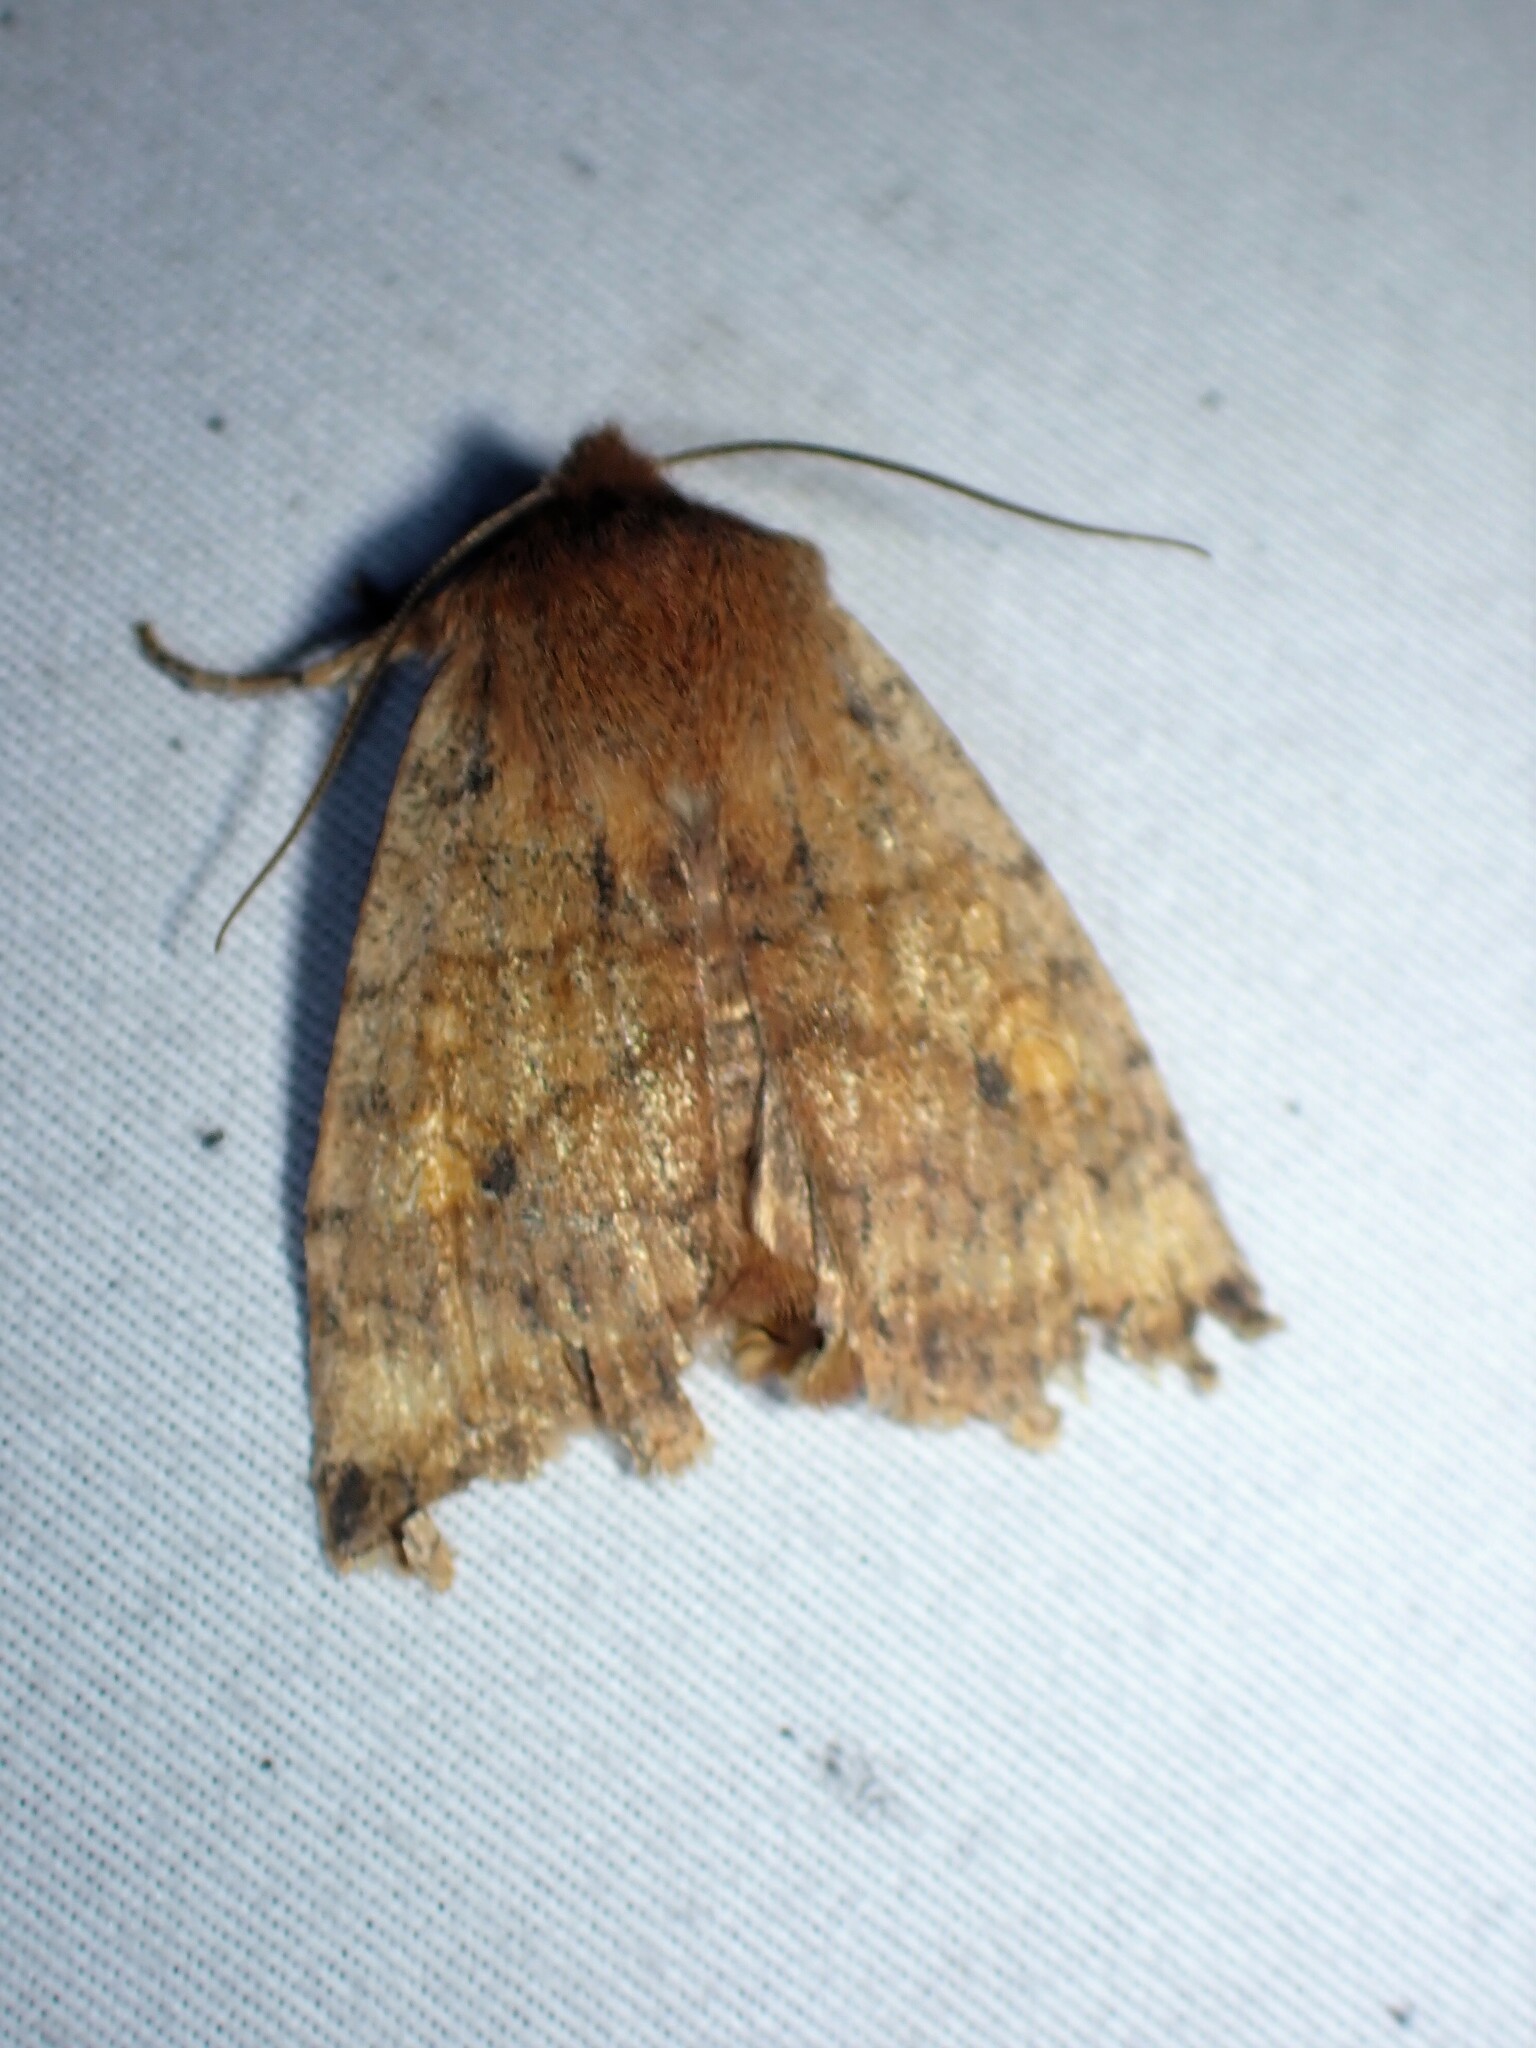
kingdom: Animalia
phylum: Arthropoda
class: Insecta
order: Lepidoptera
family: Noctuidae
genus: Eupsilia
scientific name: Eupsilia tristigmata
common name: Three-spotted sallow
